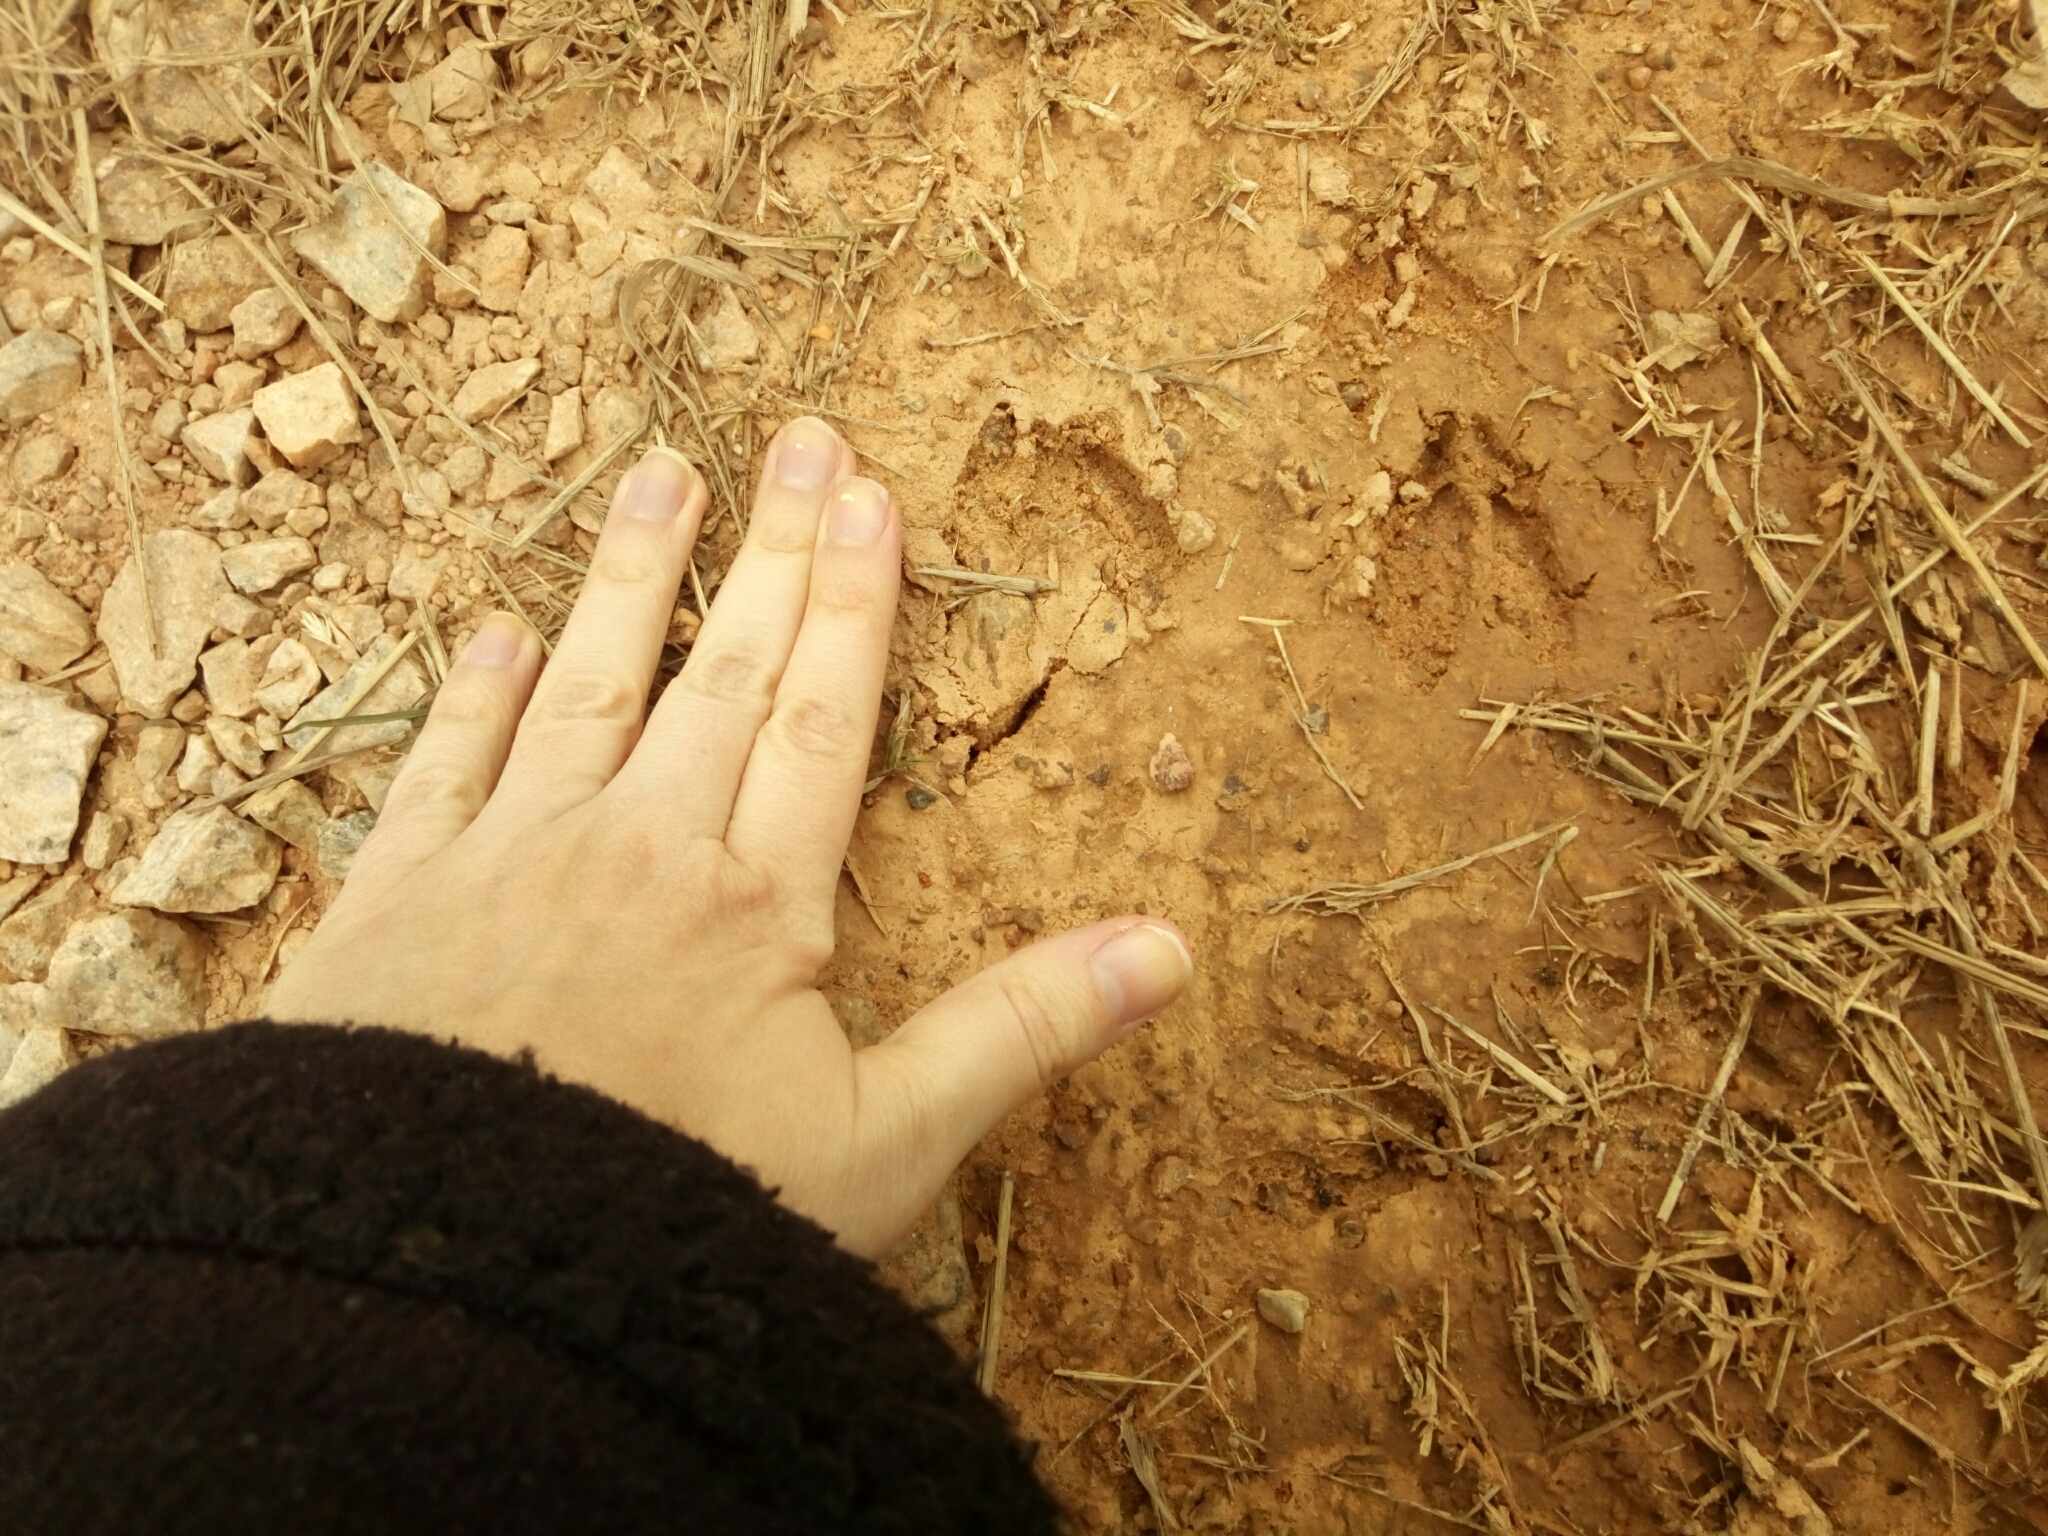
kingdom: Animalia
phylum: Chordata
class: Mammalia
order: Artiodactyla
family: Cervidae
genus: Odocoileus
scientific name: Odocoileus virginianus
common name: White-tailed deer
